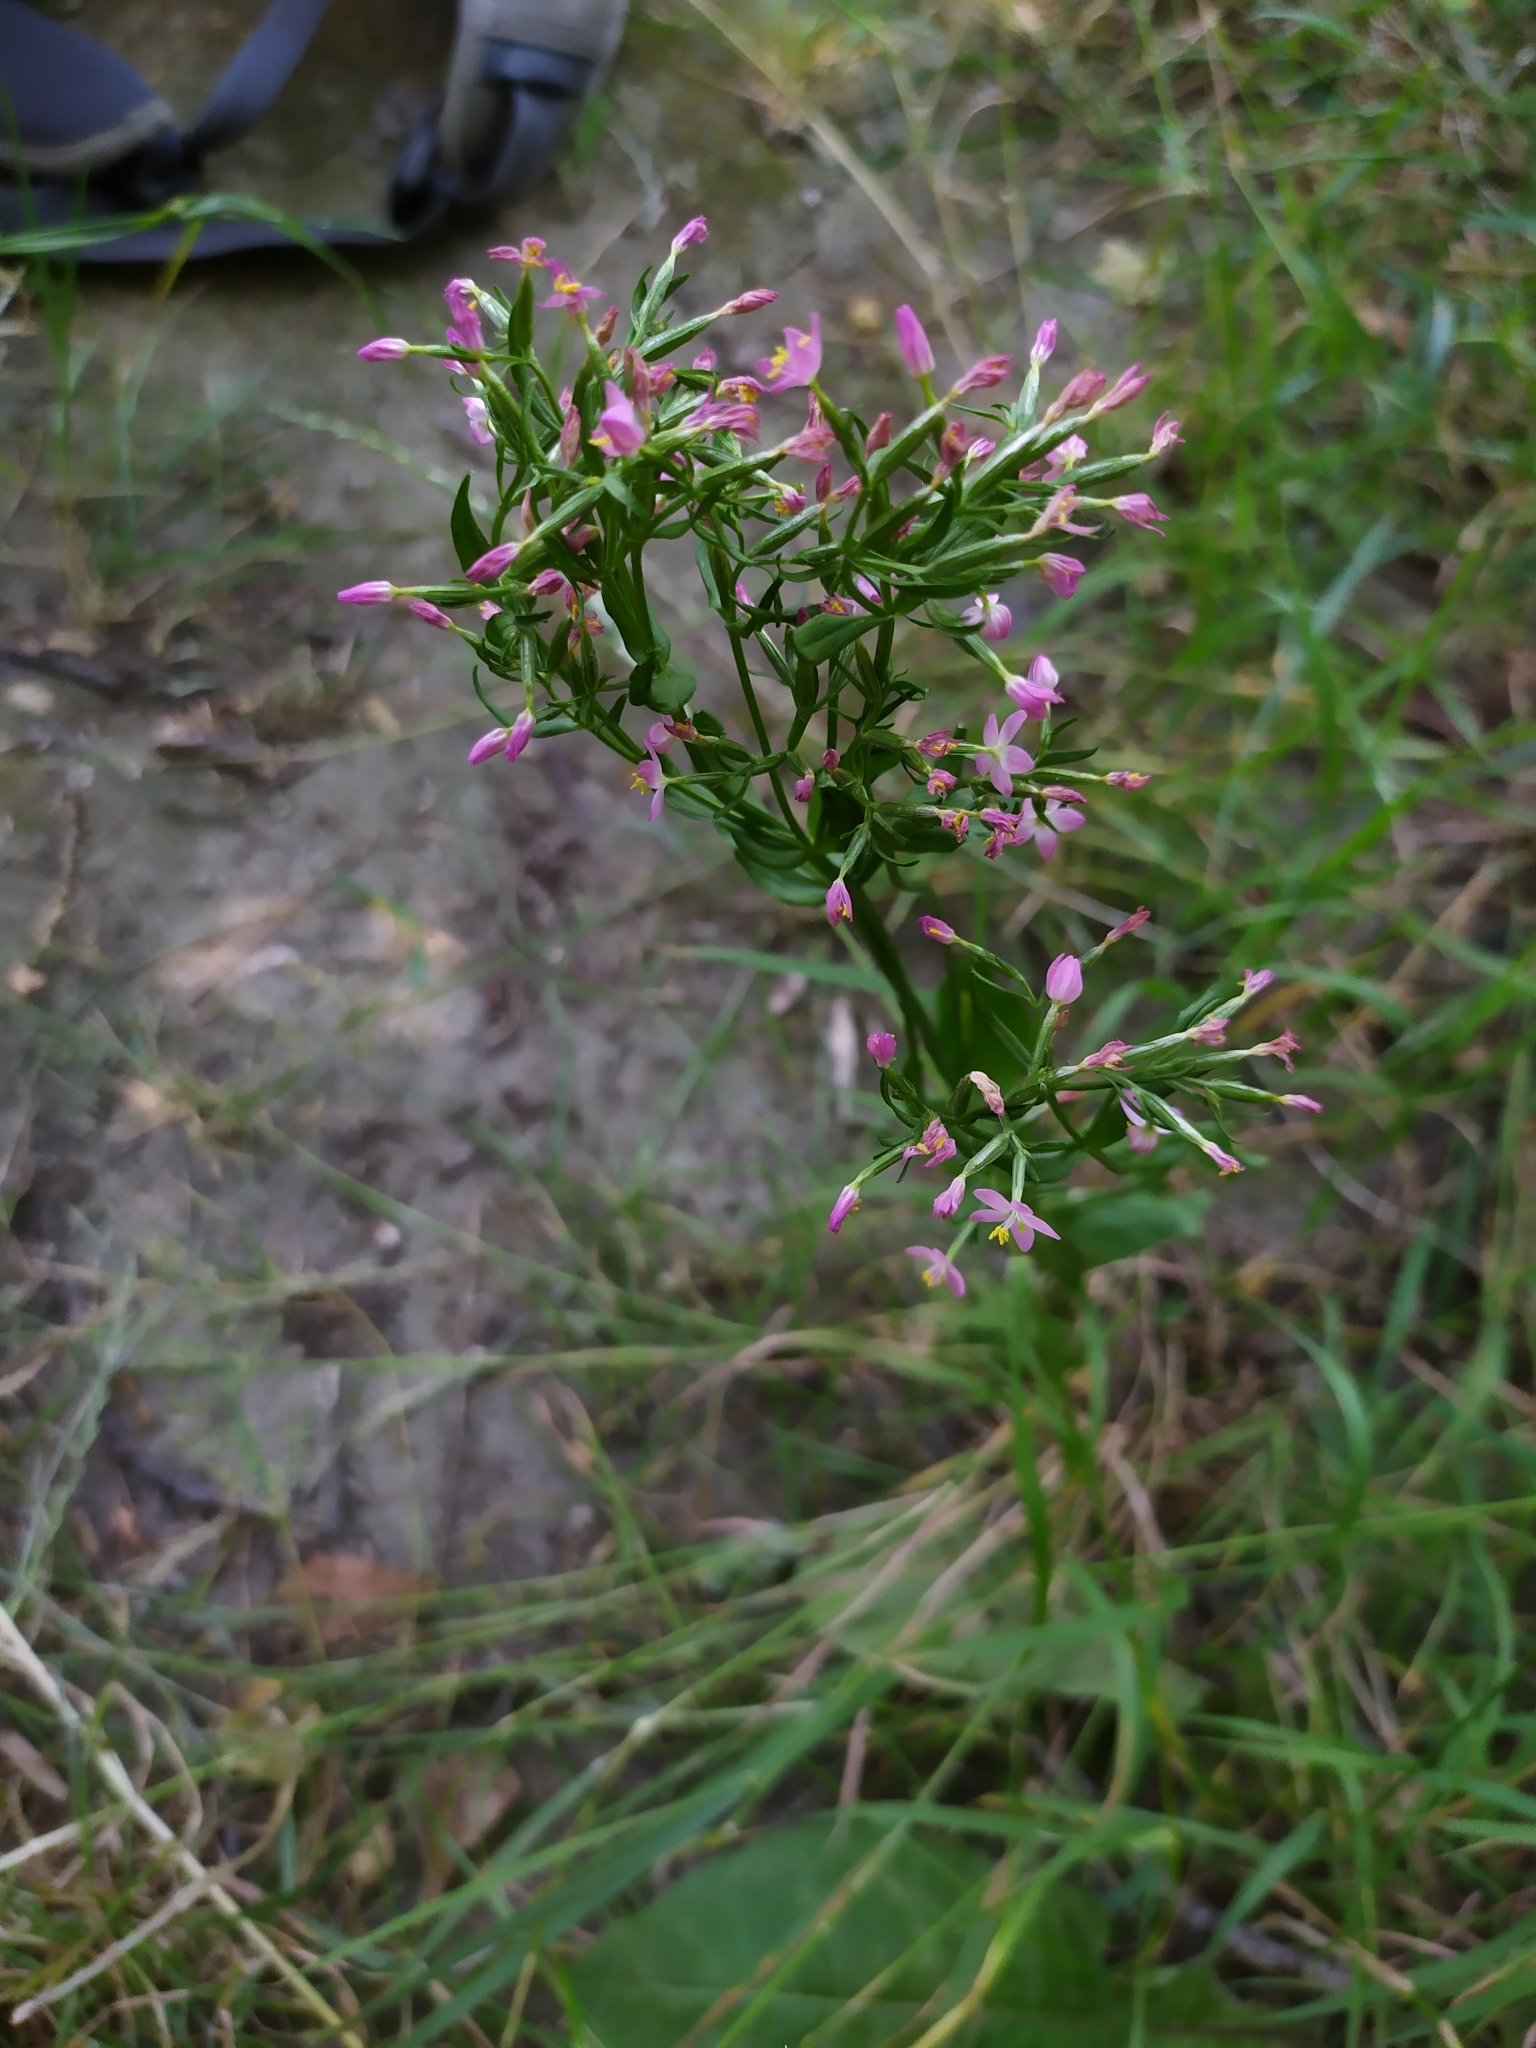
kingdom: Plantae
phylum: Tracheophyta
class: Magnoliopsida
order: Gentianales
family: Gentianaceae
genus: Centaurium
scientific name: Centaurium erythraea
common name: Common centaury
